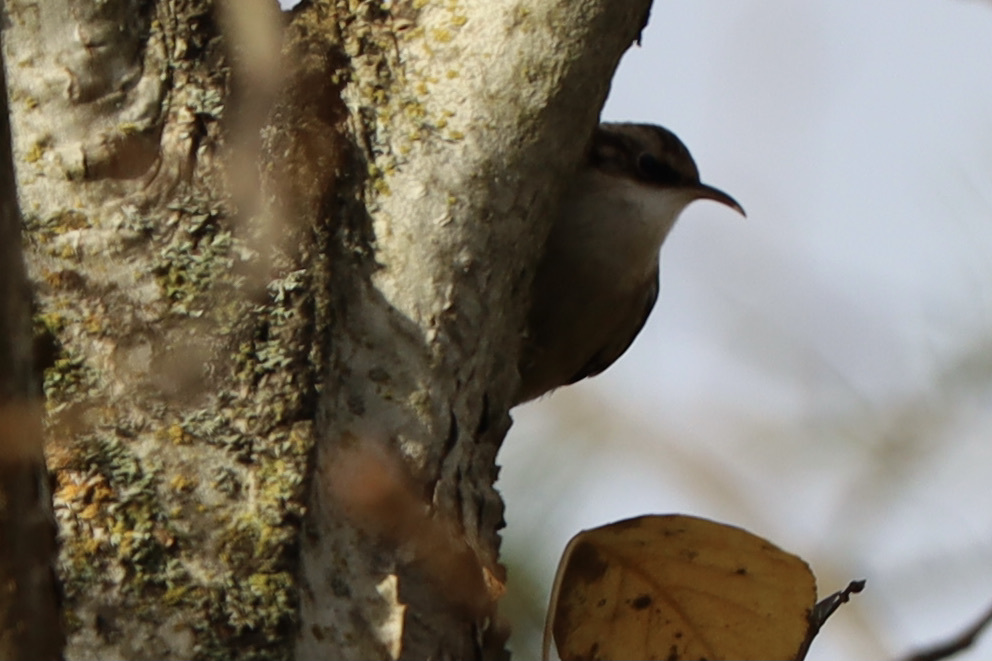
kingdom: Animalia
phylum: Chordata
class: Aves
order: Passeriformes
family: Certhiidae
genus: Certhia
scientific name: Certhia americana
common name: Brown creeper
